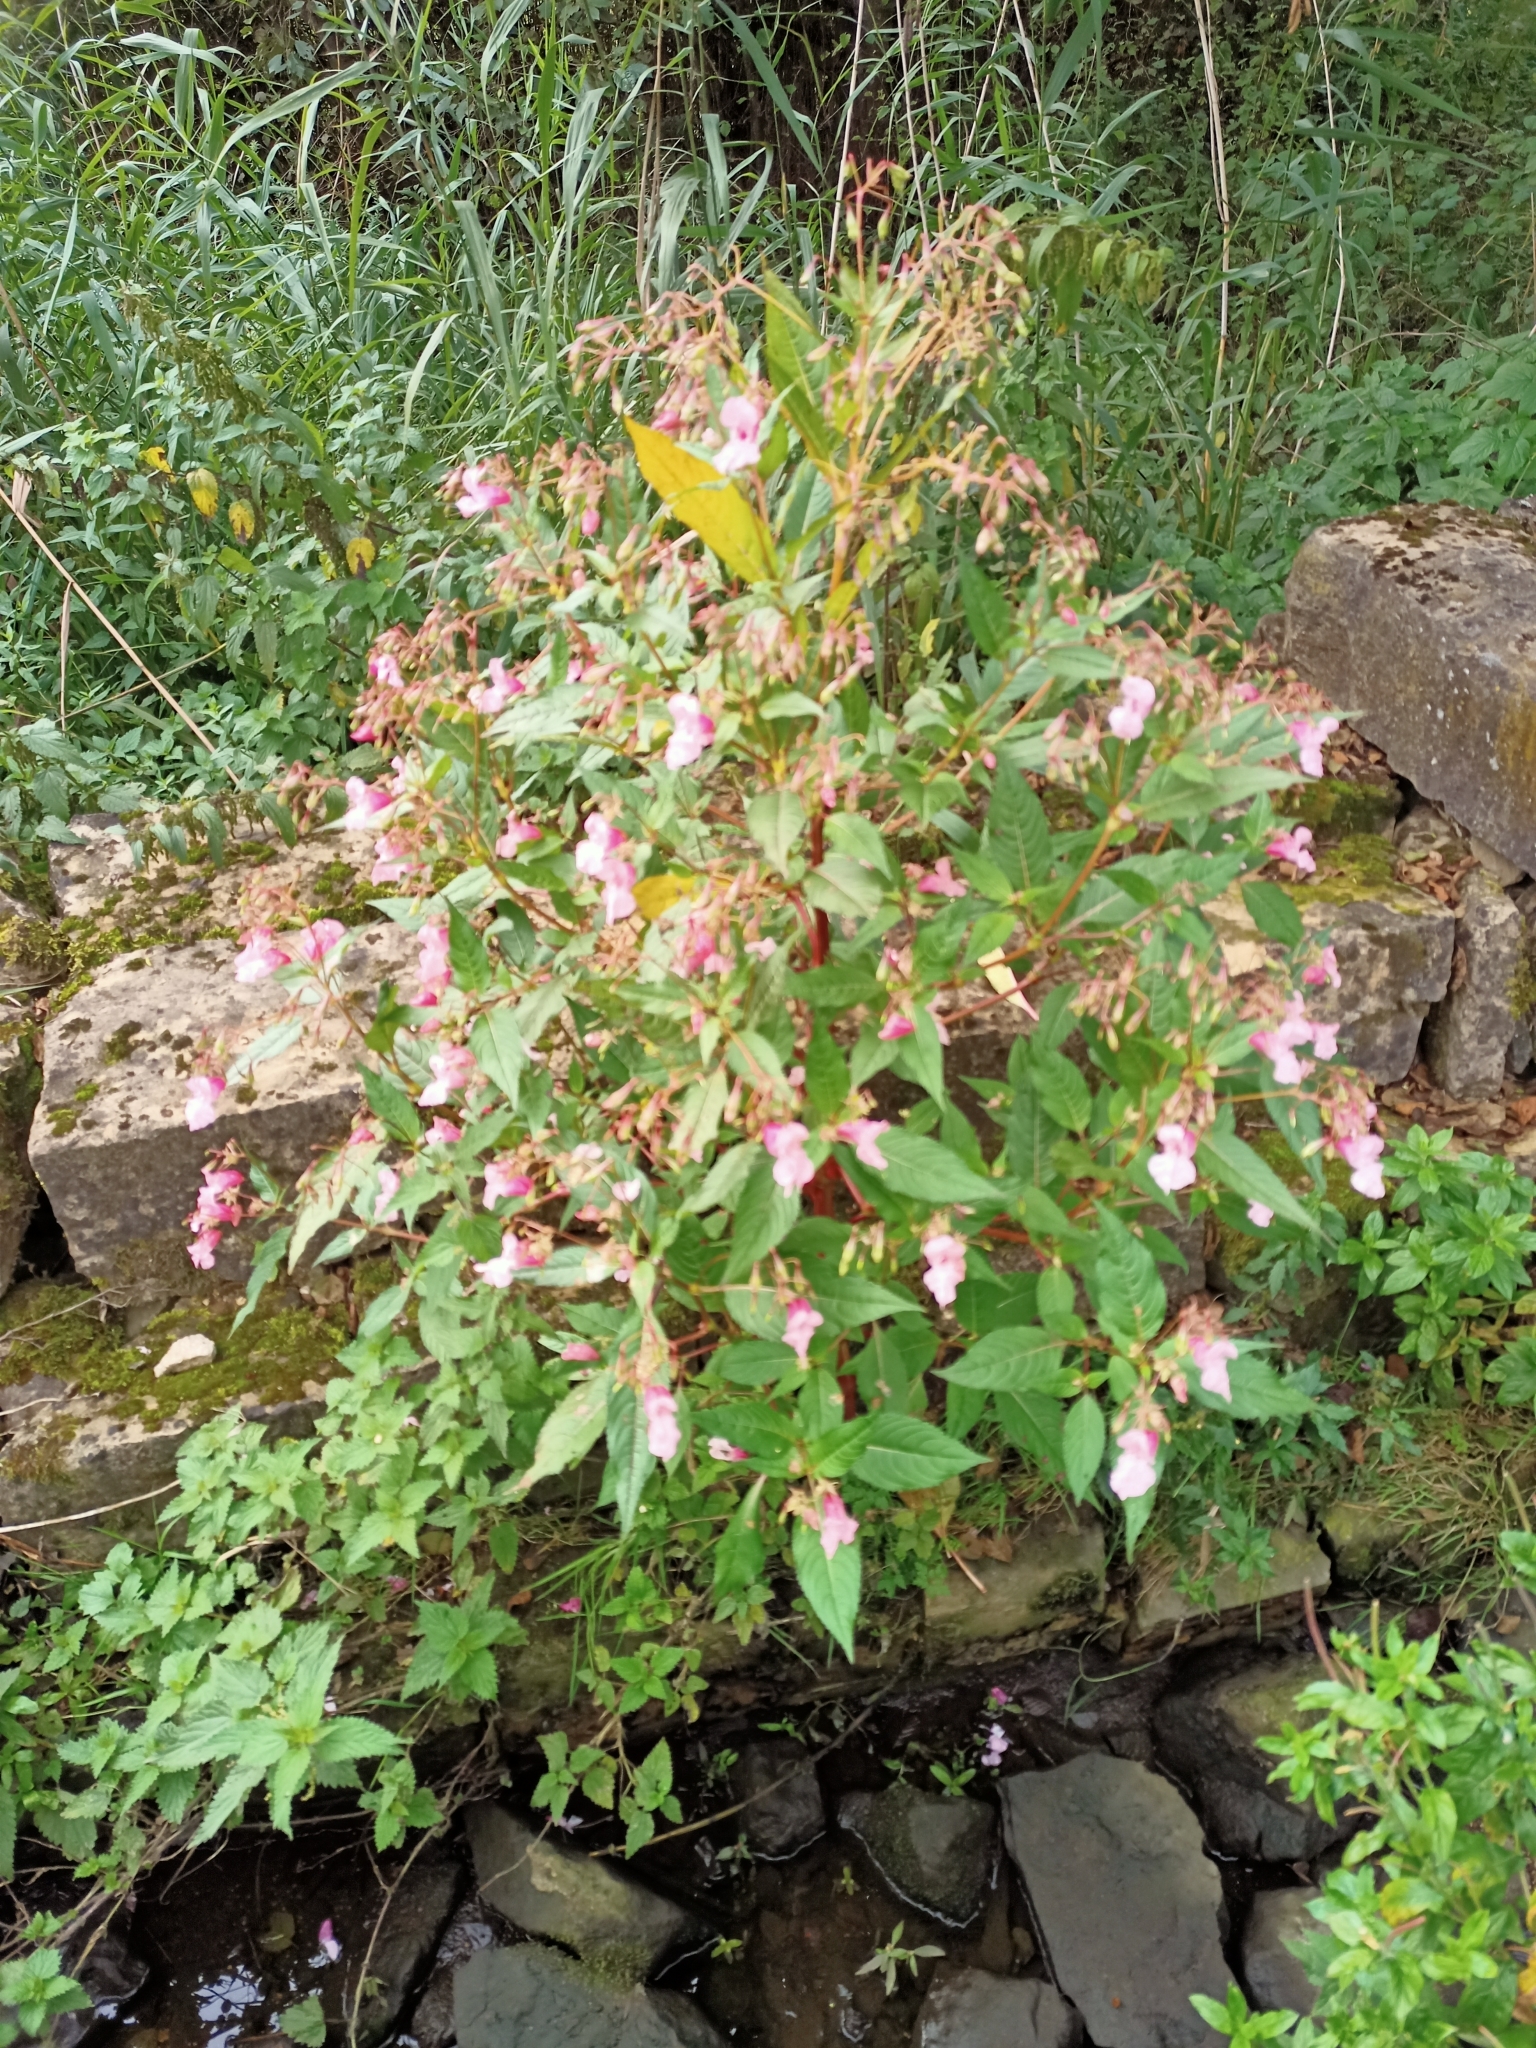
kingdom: Plantae
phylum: Tracheophyta
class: Magnoliopsida
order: Ericales
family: Balsaminaceae
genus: Impatiens
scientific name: Impatiens glandulifera
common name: Himalayan balsam
